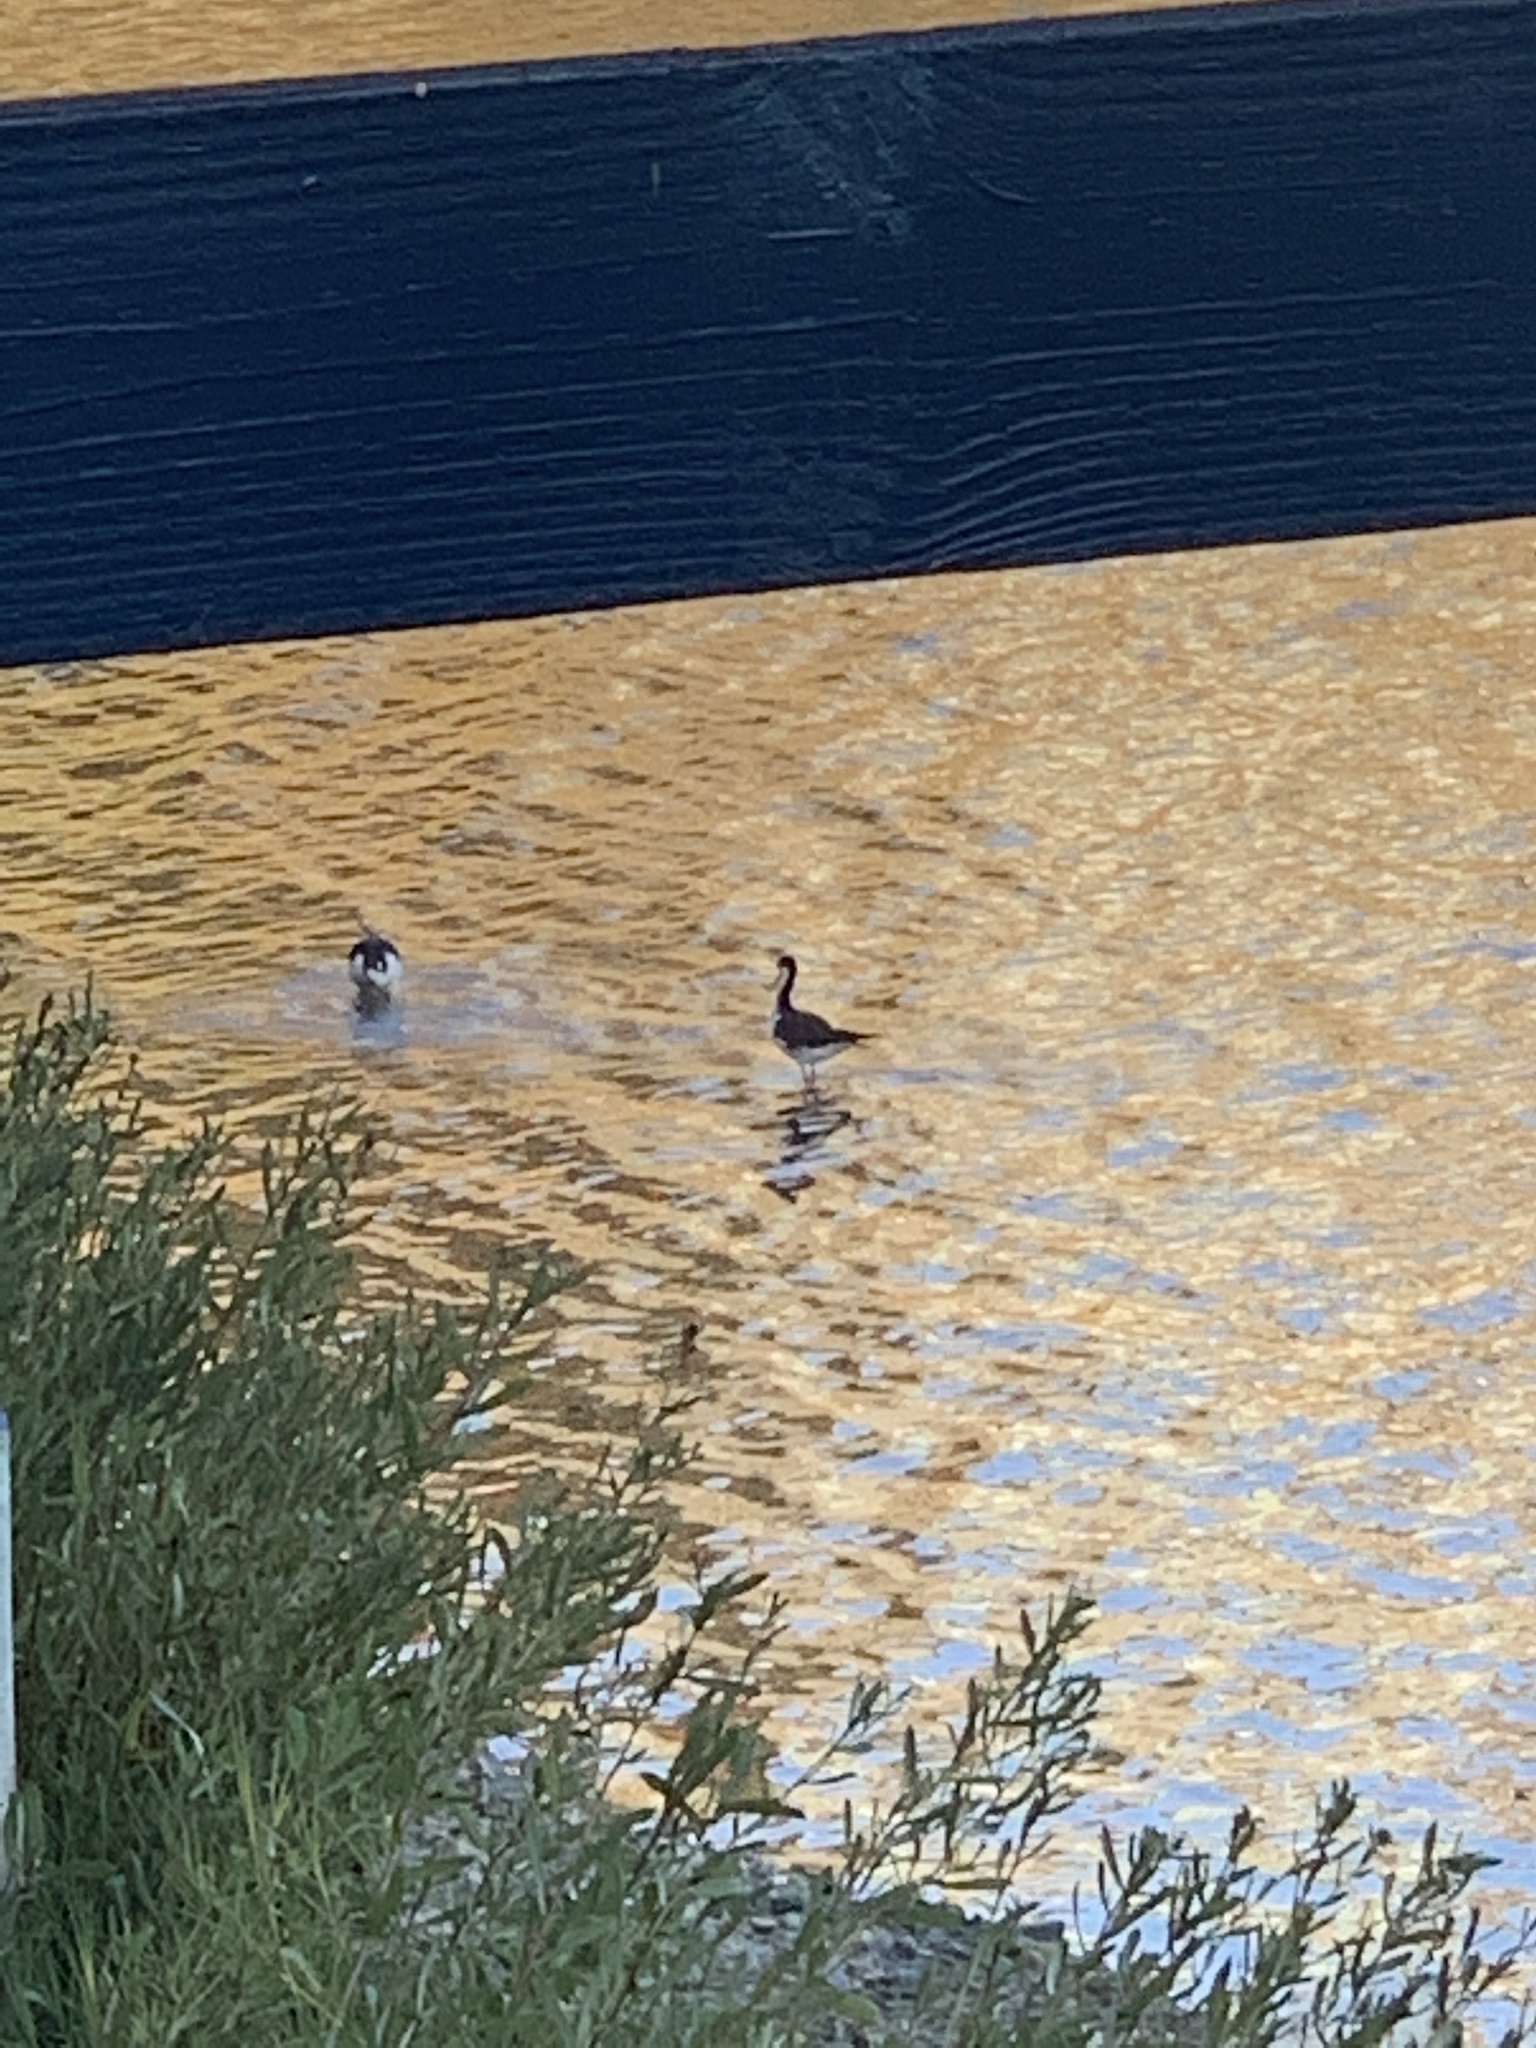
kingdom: Animalia
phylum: Chordata
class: Aves
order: Charadriiformes
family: Recurvirostridae
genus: Himantopus
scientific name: Himantopus mexicanus
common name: Black-necked stilt
